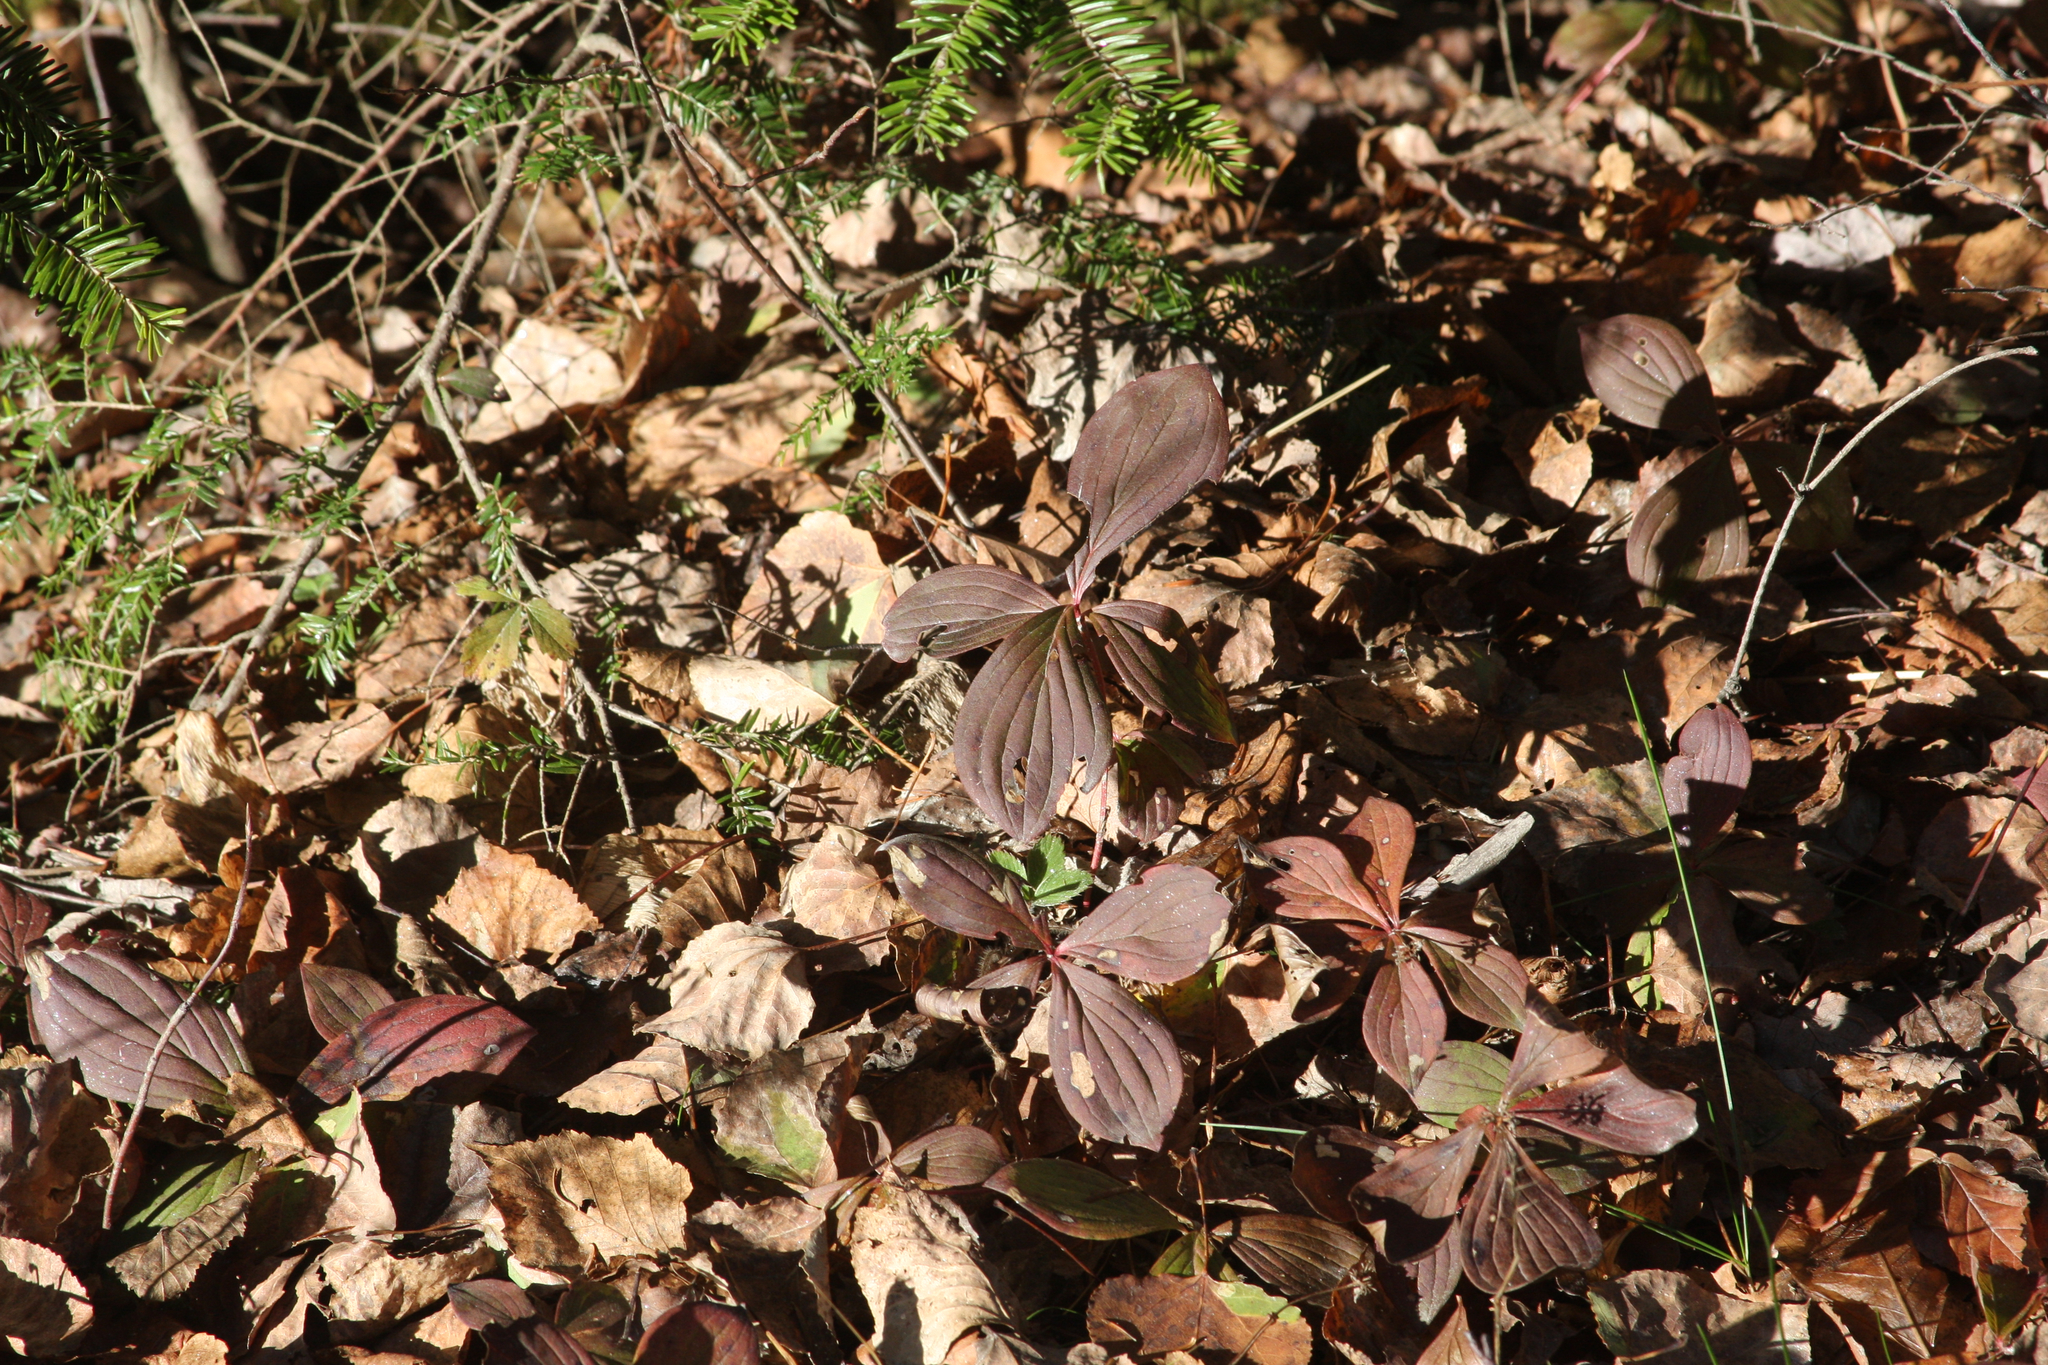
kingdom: Plantae
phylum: Tracheophyta
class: Magnoliopsida
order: Cornales
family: Cornaceae
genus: Cornus
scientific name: Cornus canadensis
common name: Creeping dogwood
